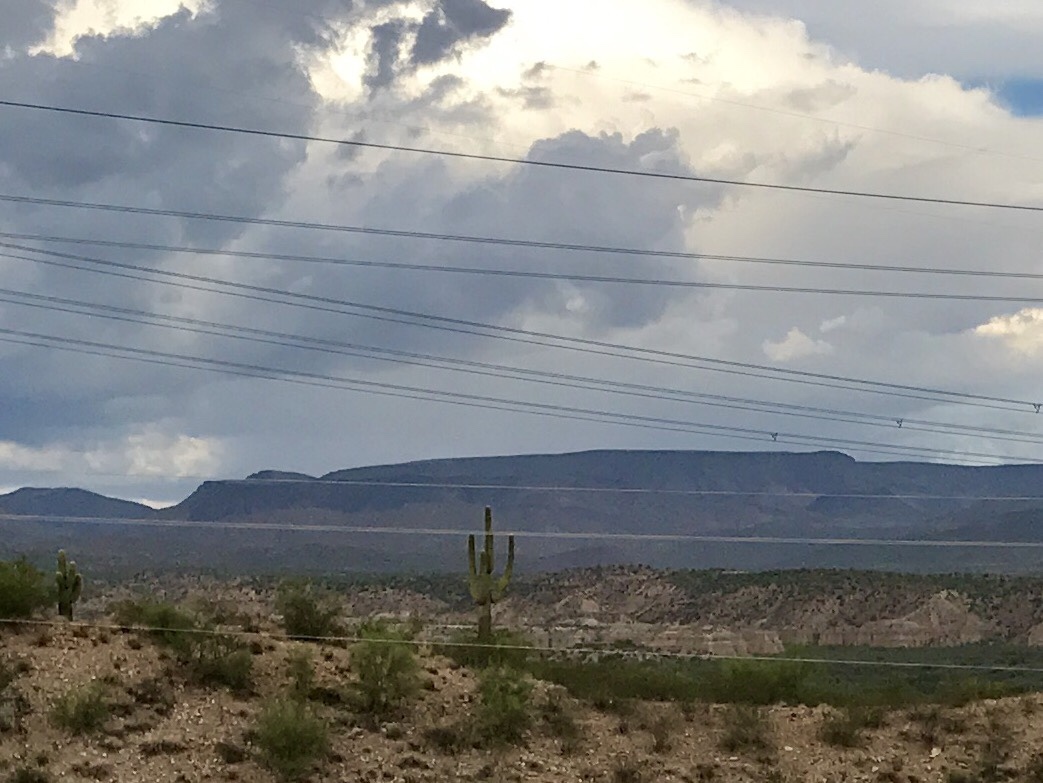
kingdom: Plantae
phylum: Tracheophyta
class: Magnoliopsida
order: Caryophyllales
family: Cactaceae
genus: Carnegiea
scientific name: Carnegiea gigantea
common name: Saguaro
